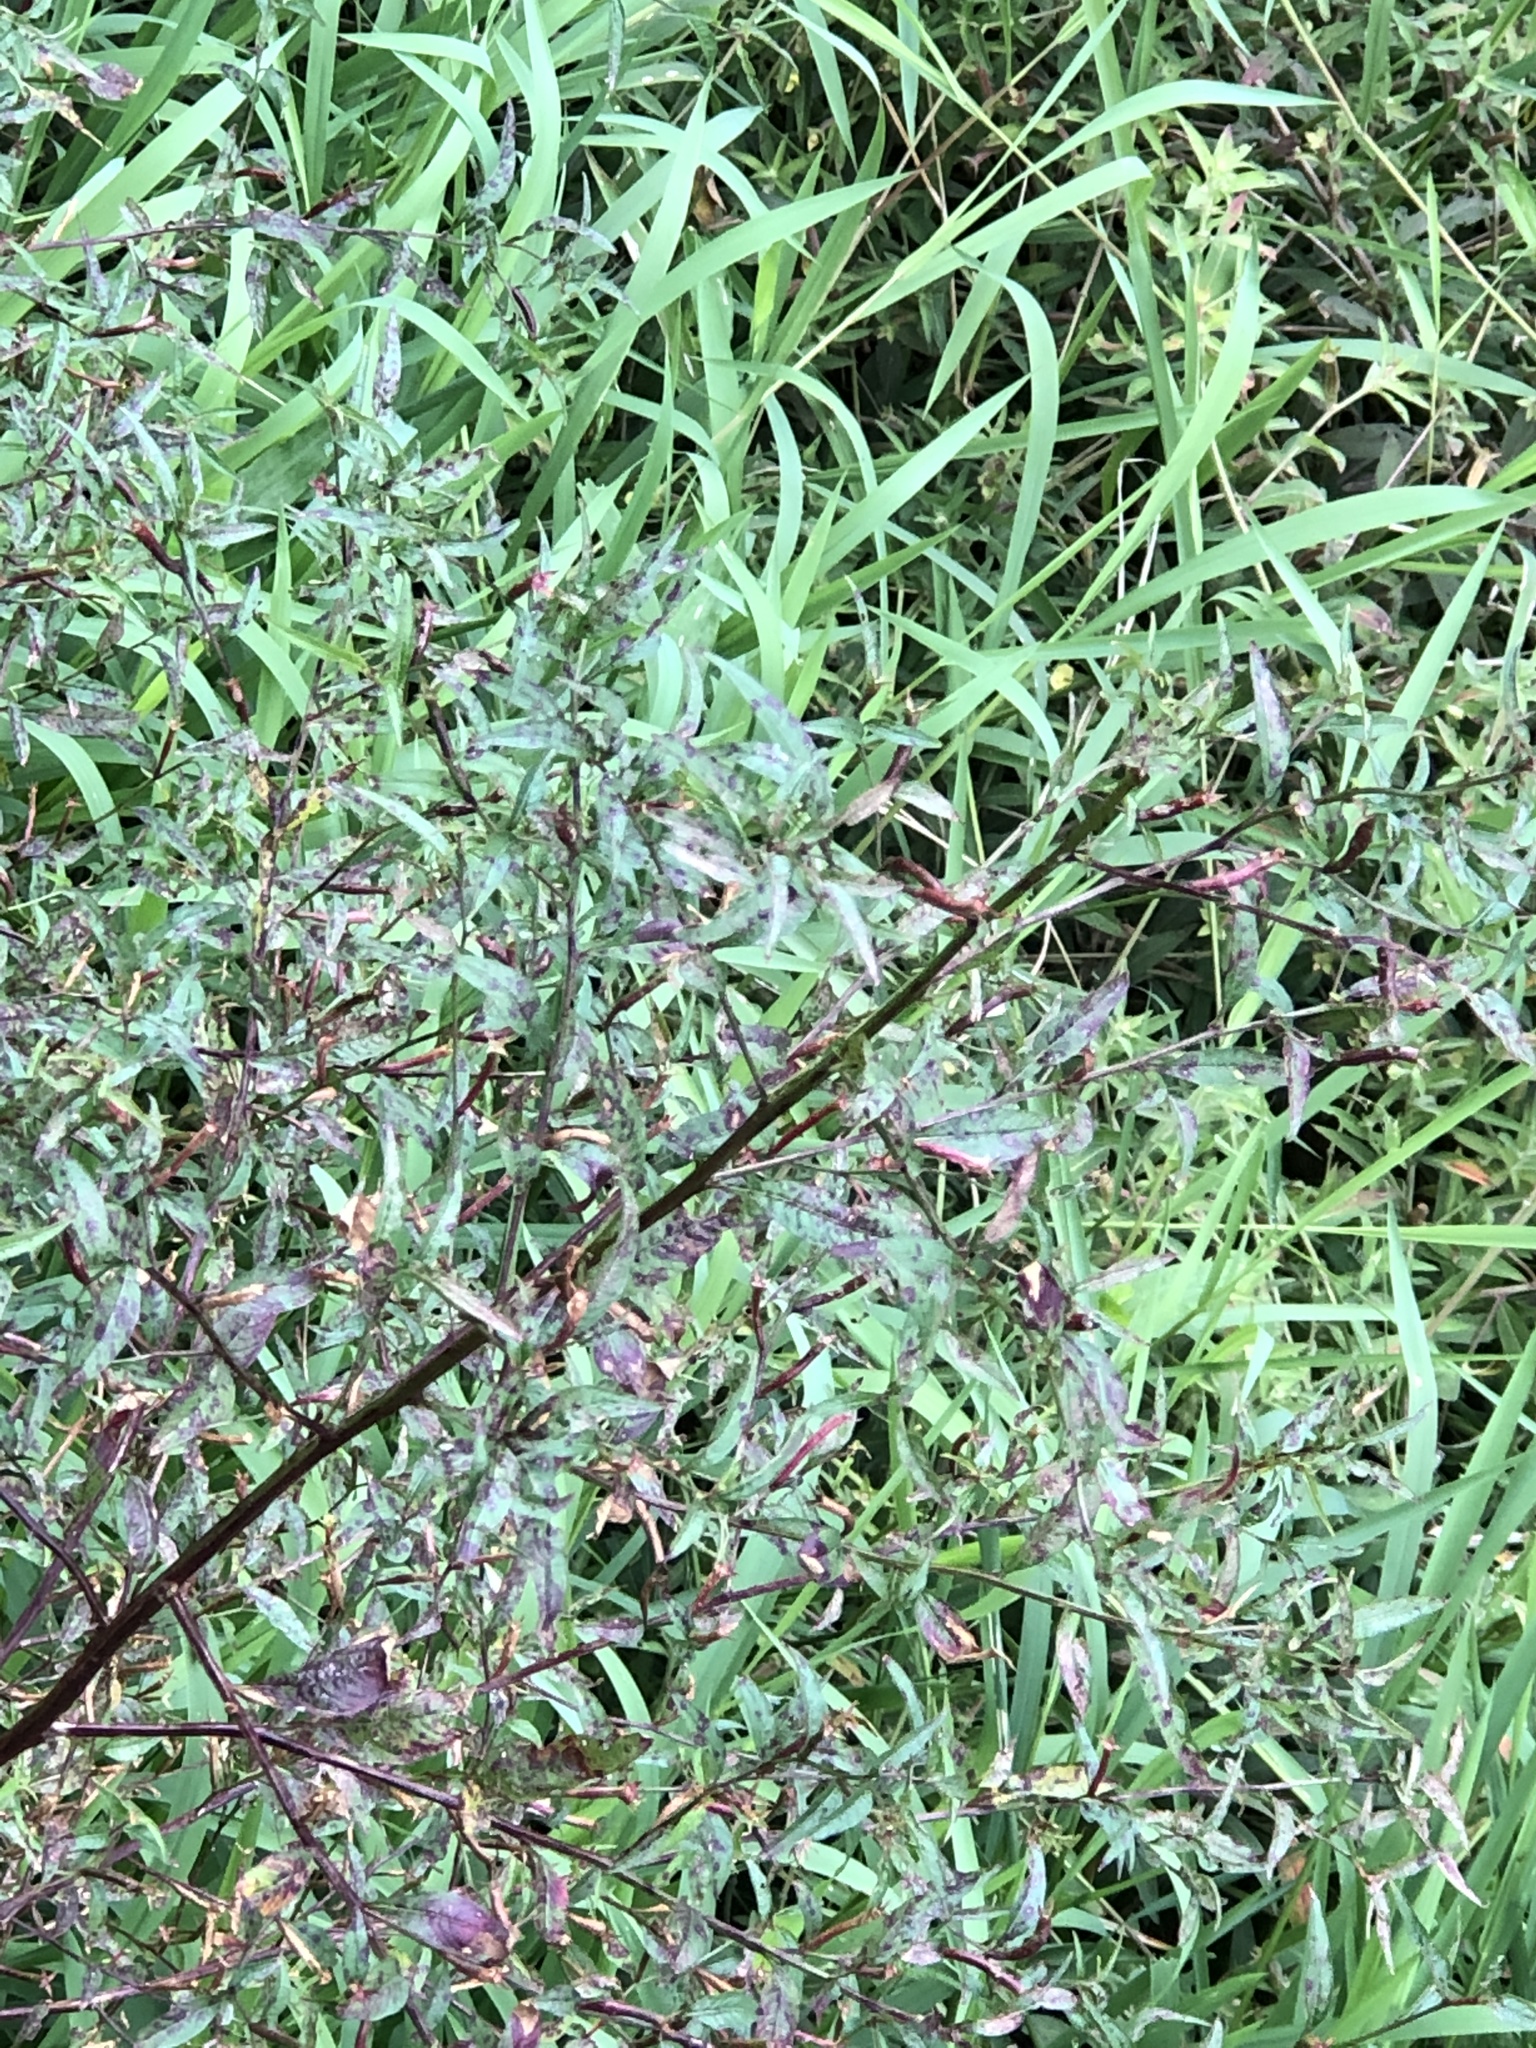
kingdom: Plantae
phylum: Tracheophyta
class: Magnoliopsida
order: Myrtales
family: Onagraceae
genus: Ludwigia
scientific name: Ludwigia hyssopifolia
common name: Linear leaf water primrose
